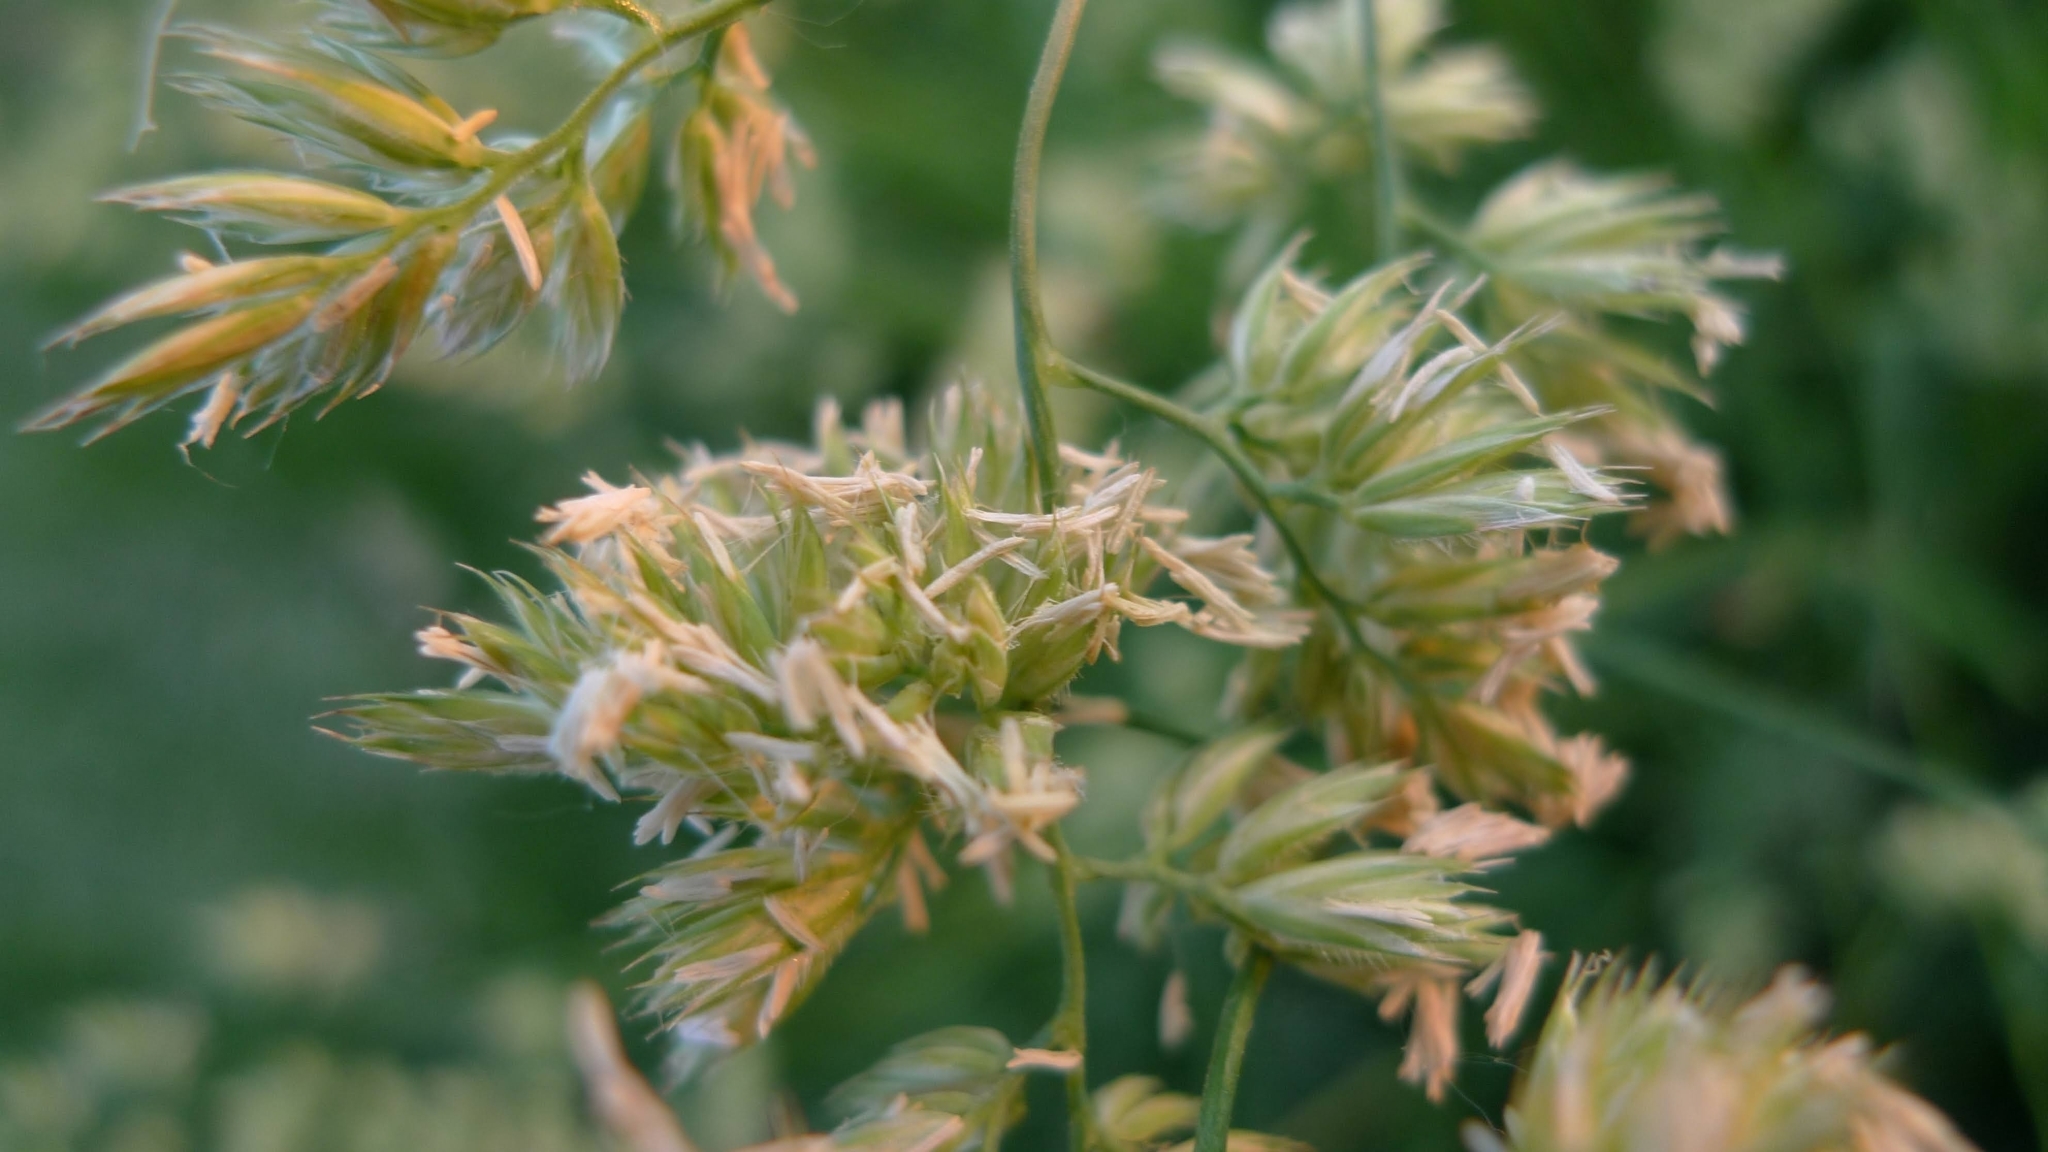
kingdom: Plantae
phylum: Tracheophyta
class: Liliopsida
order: Poales
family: Poaceae
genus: Dactylis
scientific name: Dactylis glomerata
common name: Orchardgrass
